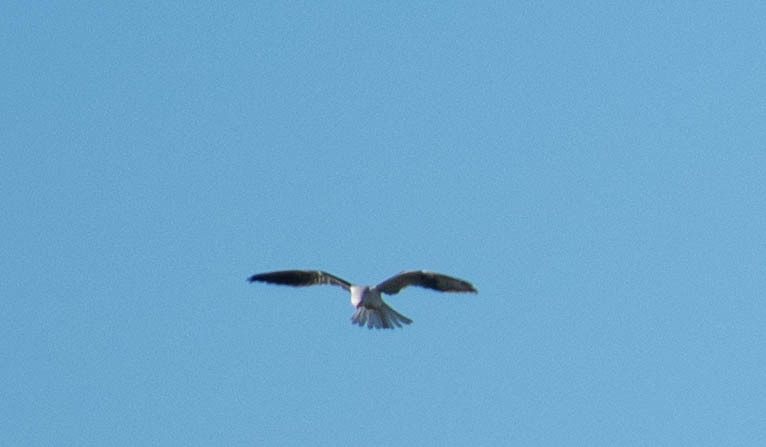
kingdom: Animalia
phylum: Chordata
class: Aves
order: Accipitriformes
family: Accipitridae
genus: Elanus
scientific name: Elanus leucurus
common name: White-tailed kite
